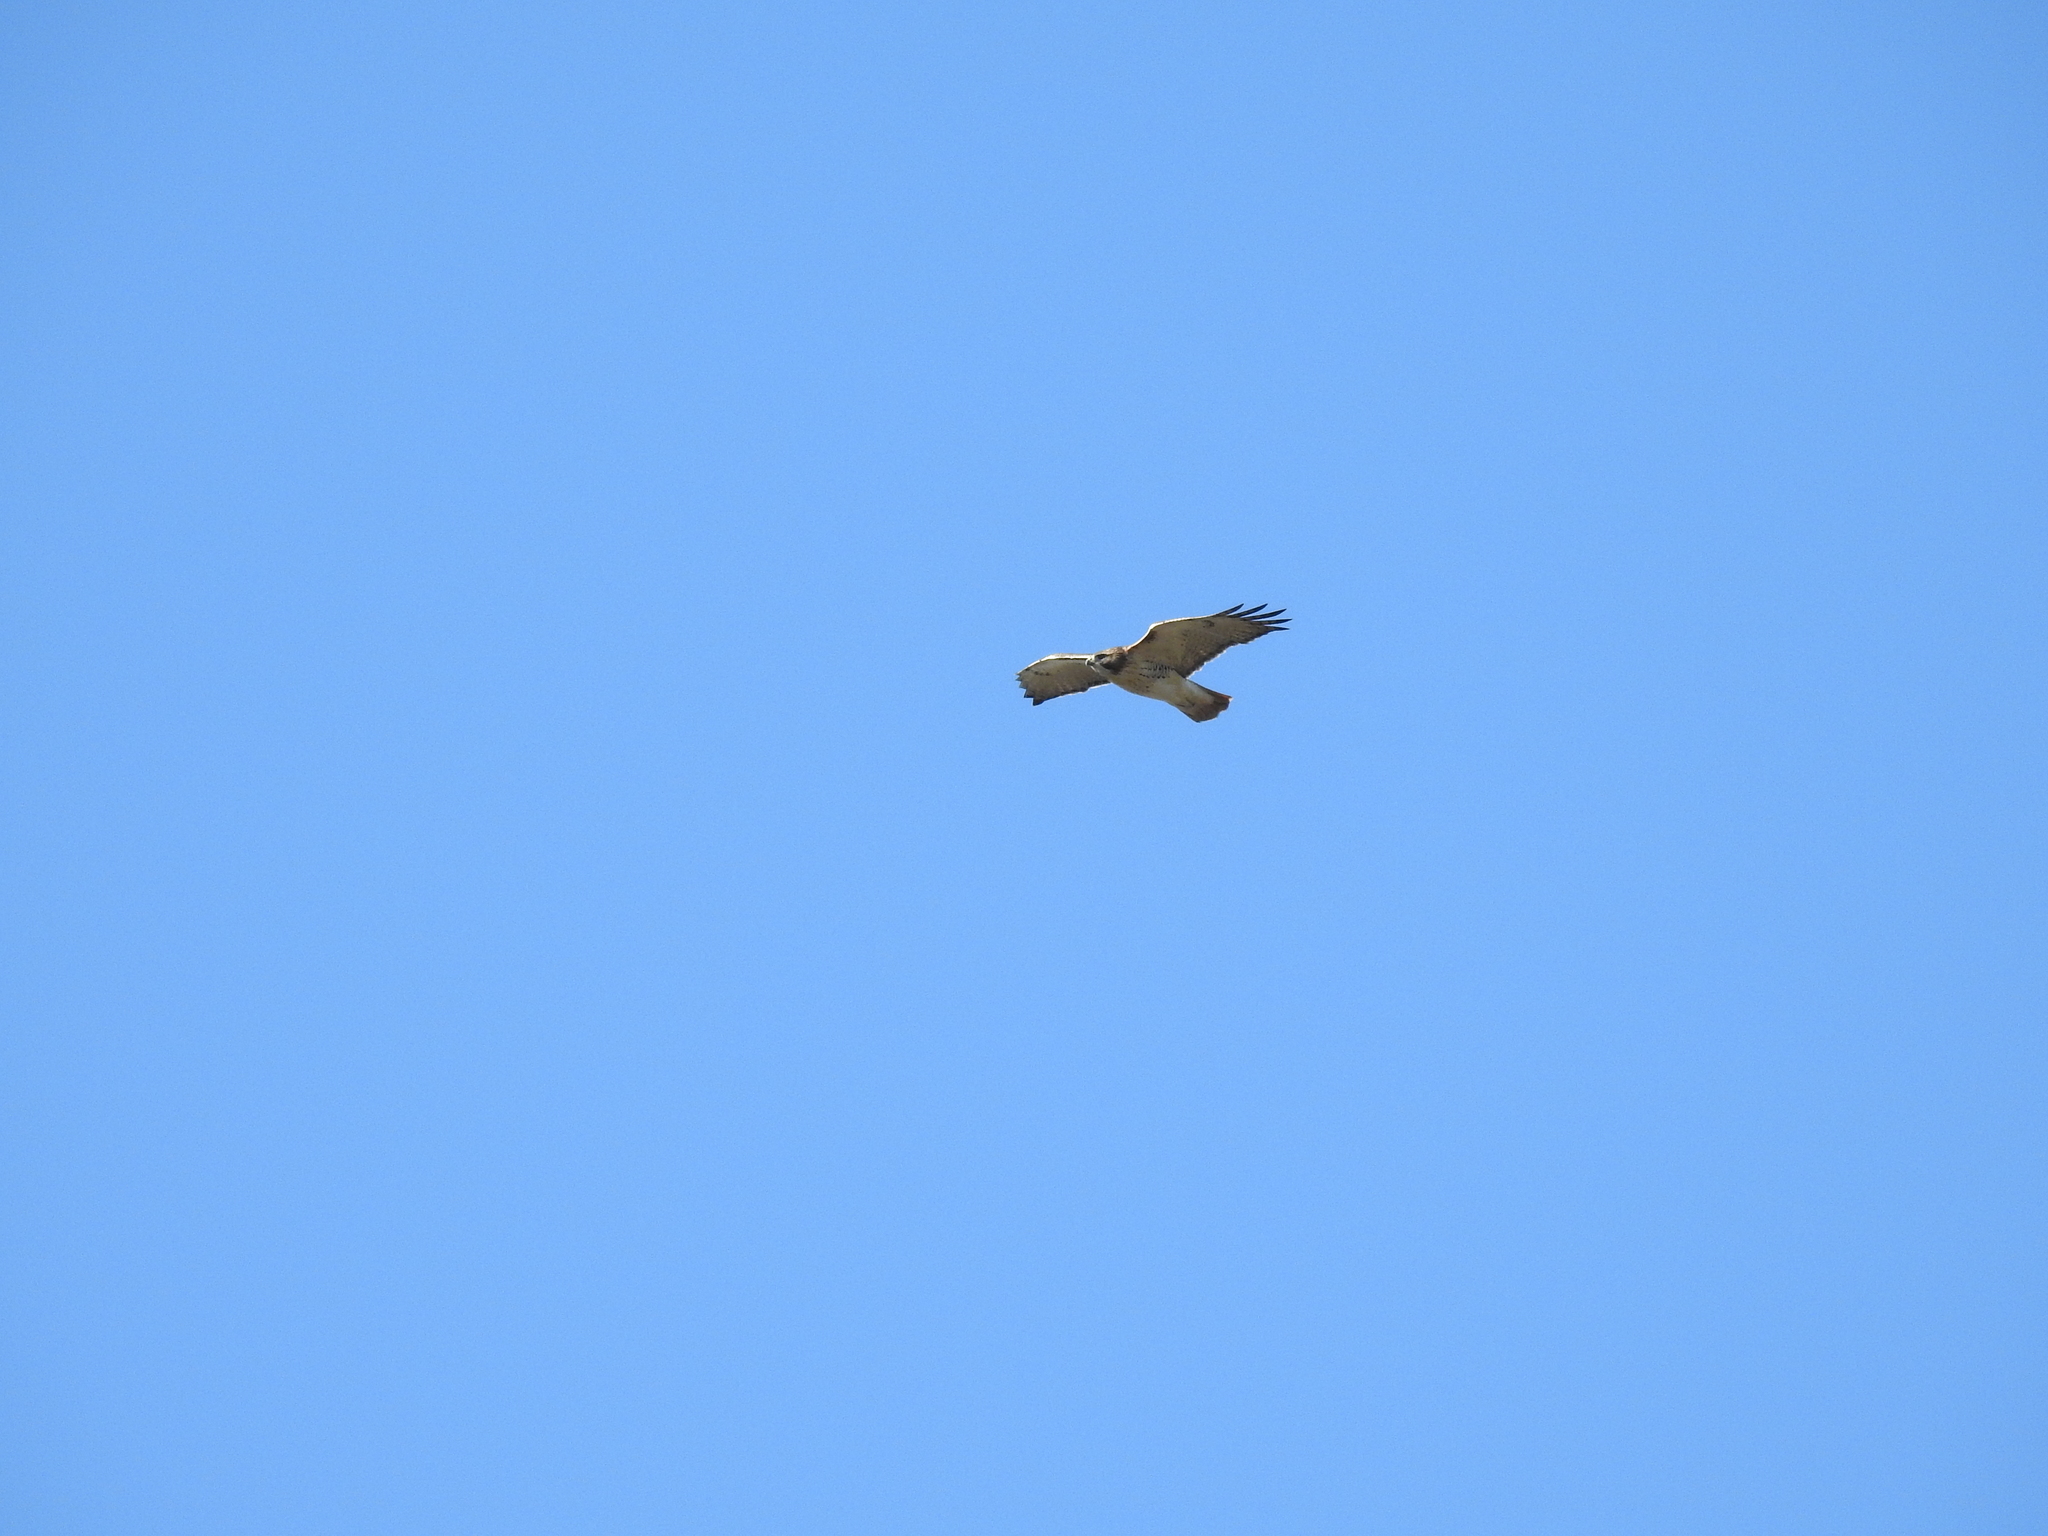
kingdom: Animalia
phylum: Chordata
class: Aves
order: Accipitriformes
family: Accipitridae
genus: Buteo
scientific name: Buteo jamaicensis
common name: Red-tailed hawk
